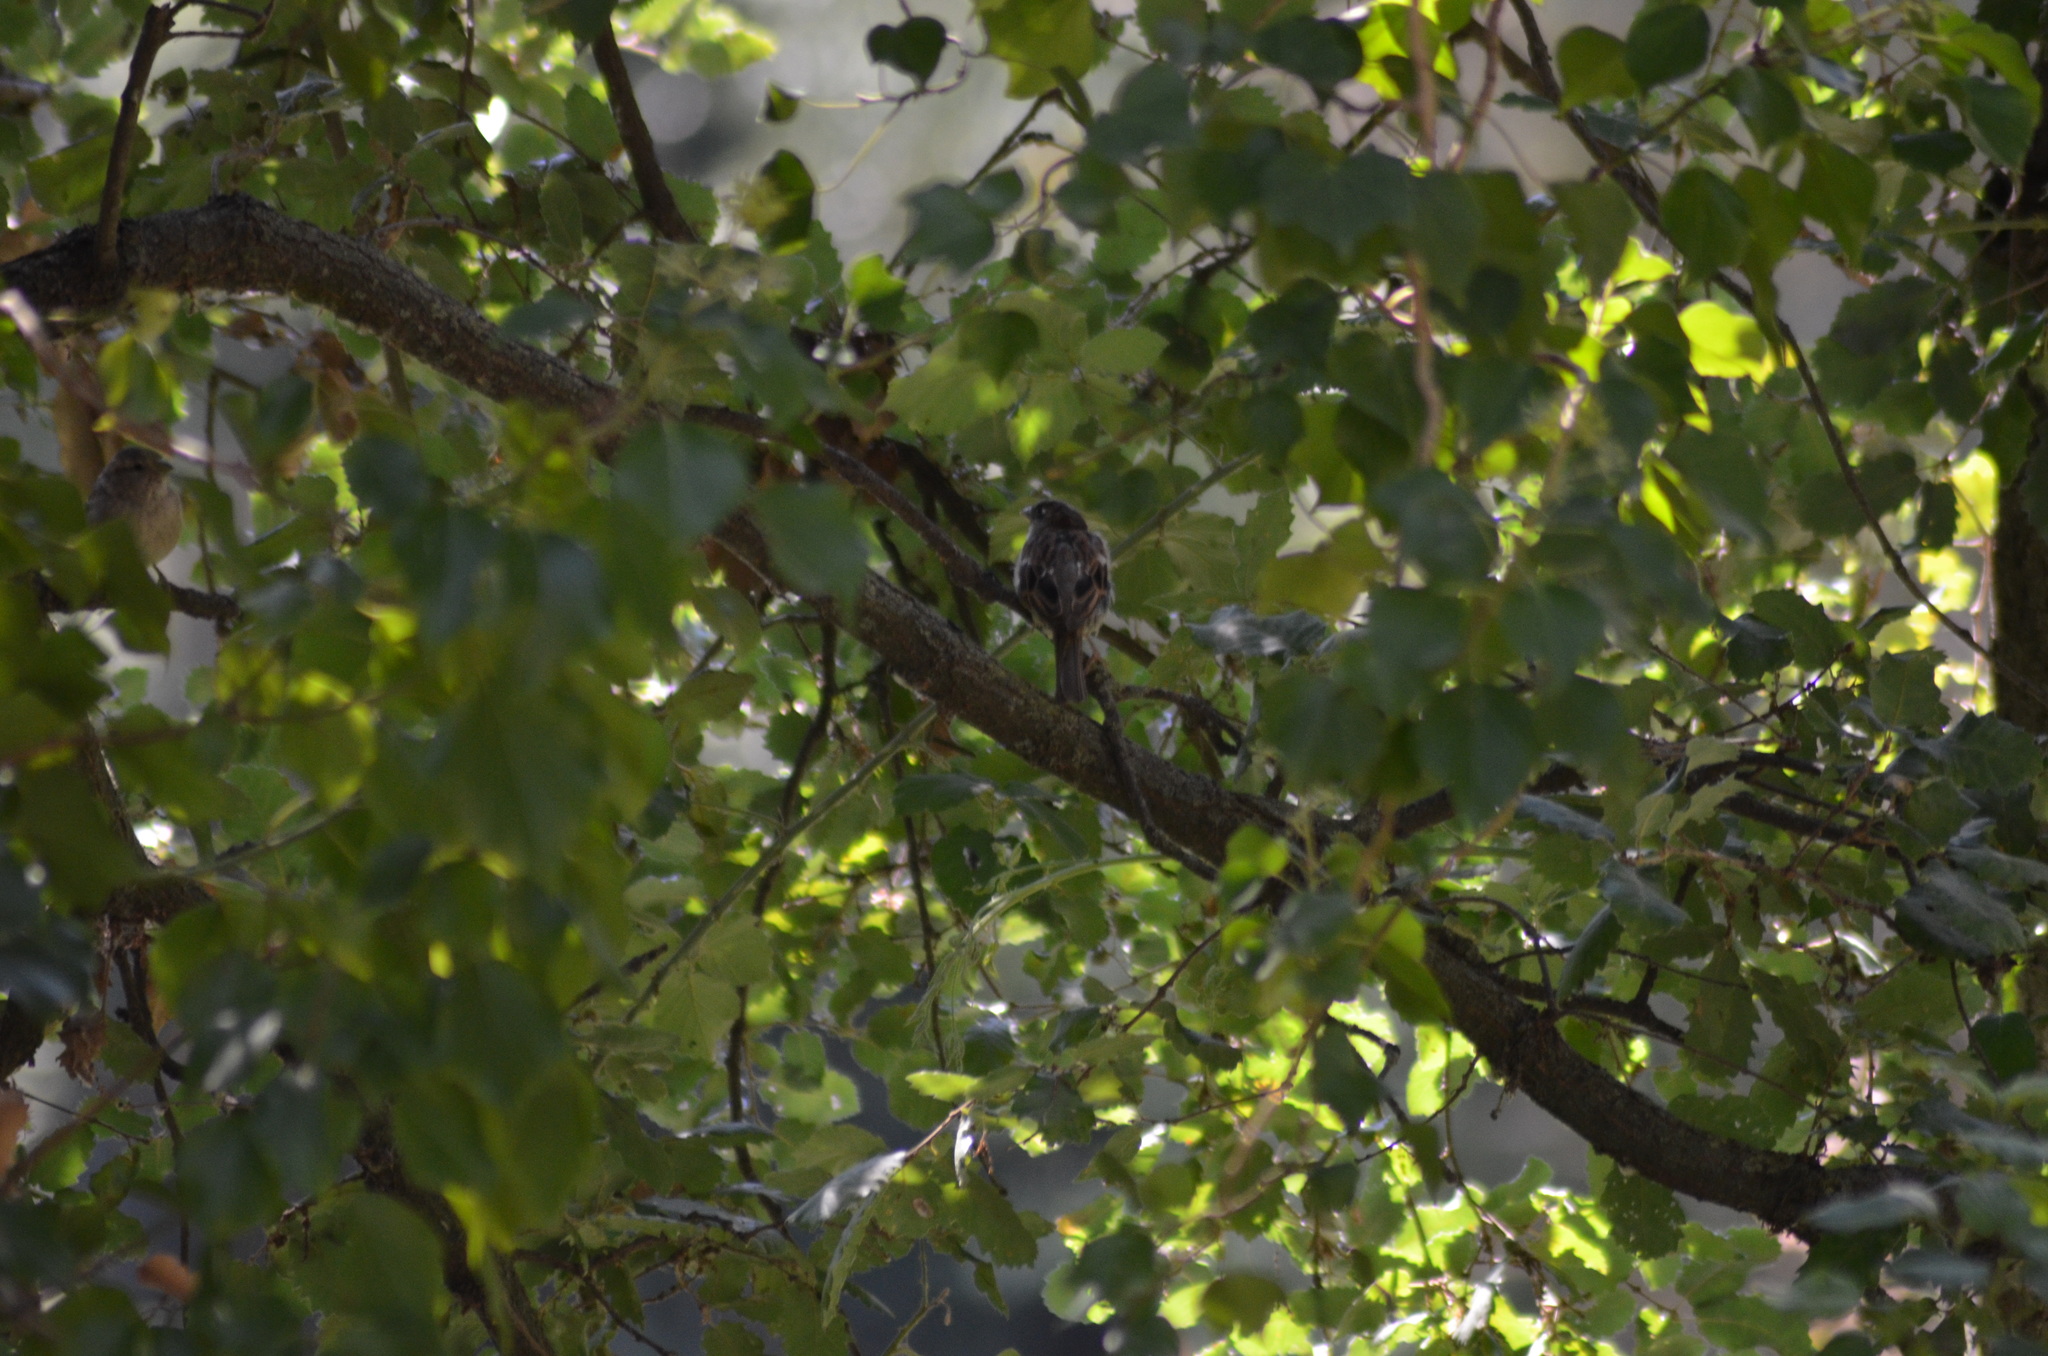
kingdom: Animalia
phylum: Chordata
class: Aves
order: Passeriformes
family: Passeridae
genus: Passer
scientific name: Passer domesticus
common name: House sparrow
